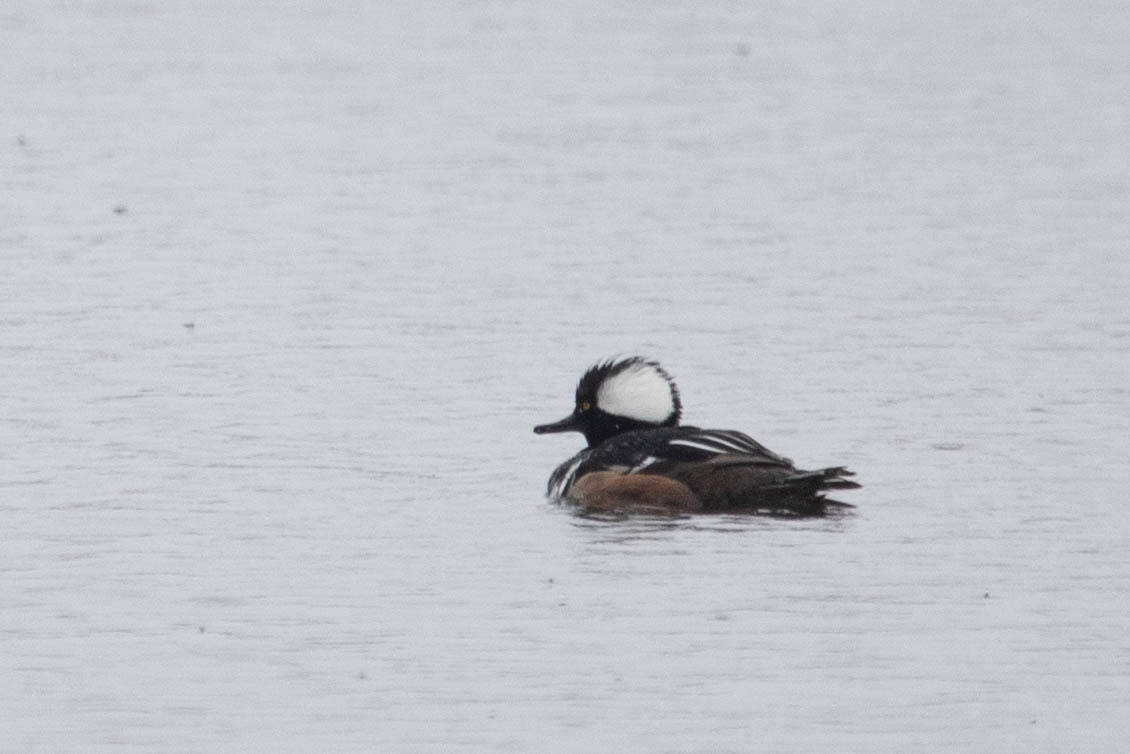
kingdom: Animalia
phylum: Chordata
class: Aves
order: Anseriformes
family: Anatidae
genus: Lophodytes
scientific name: Lophodytes cucullatus
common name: Hooded merganser
